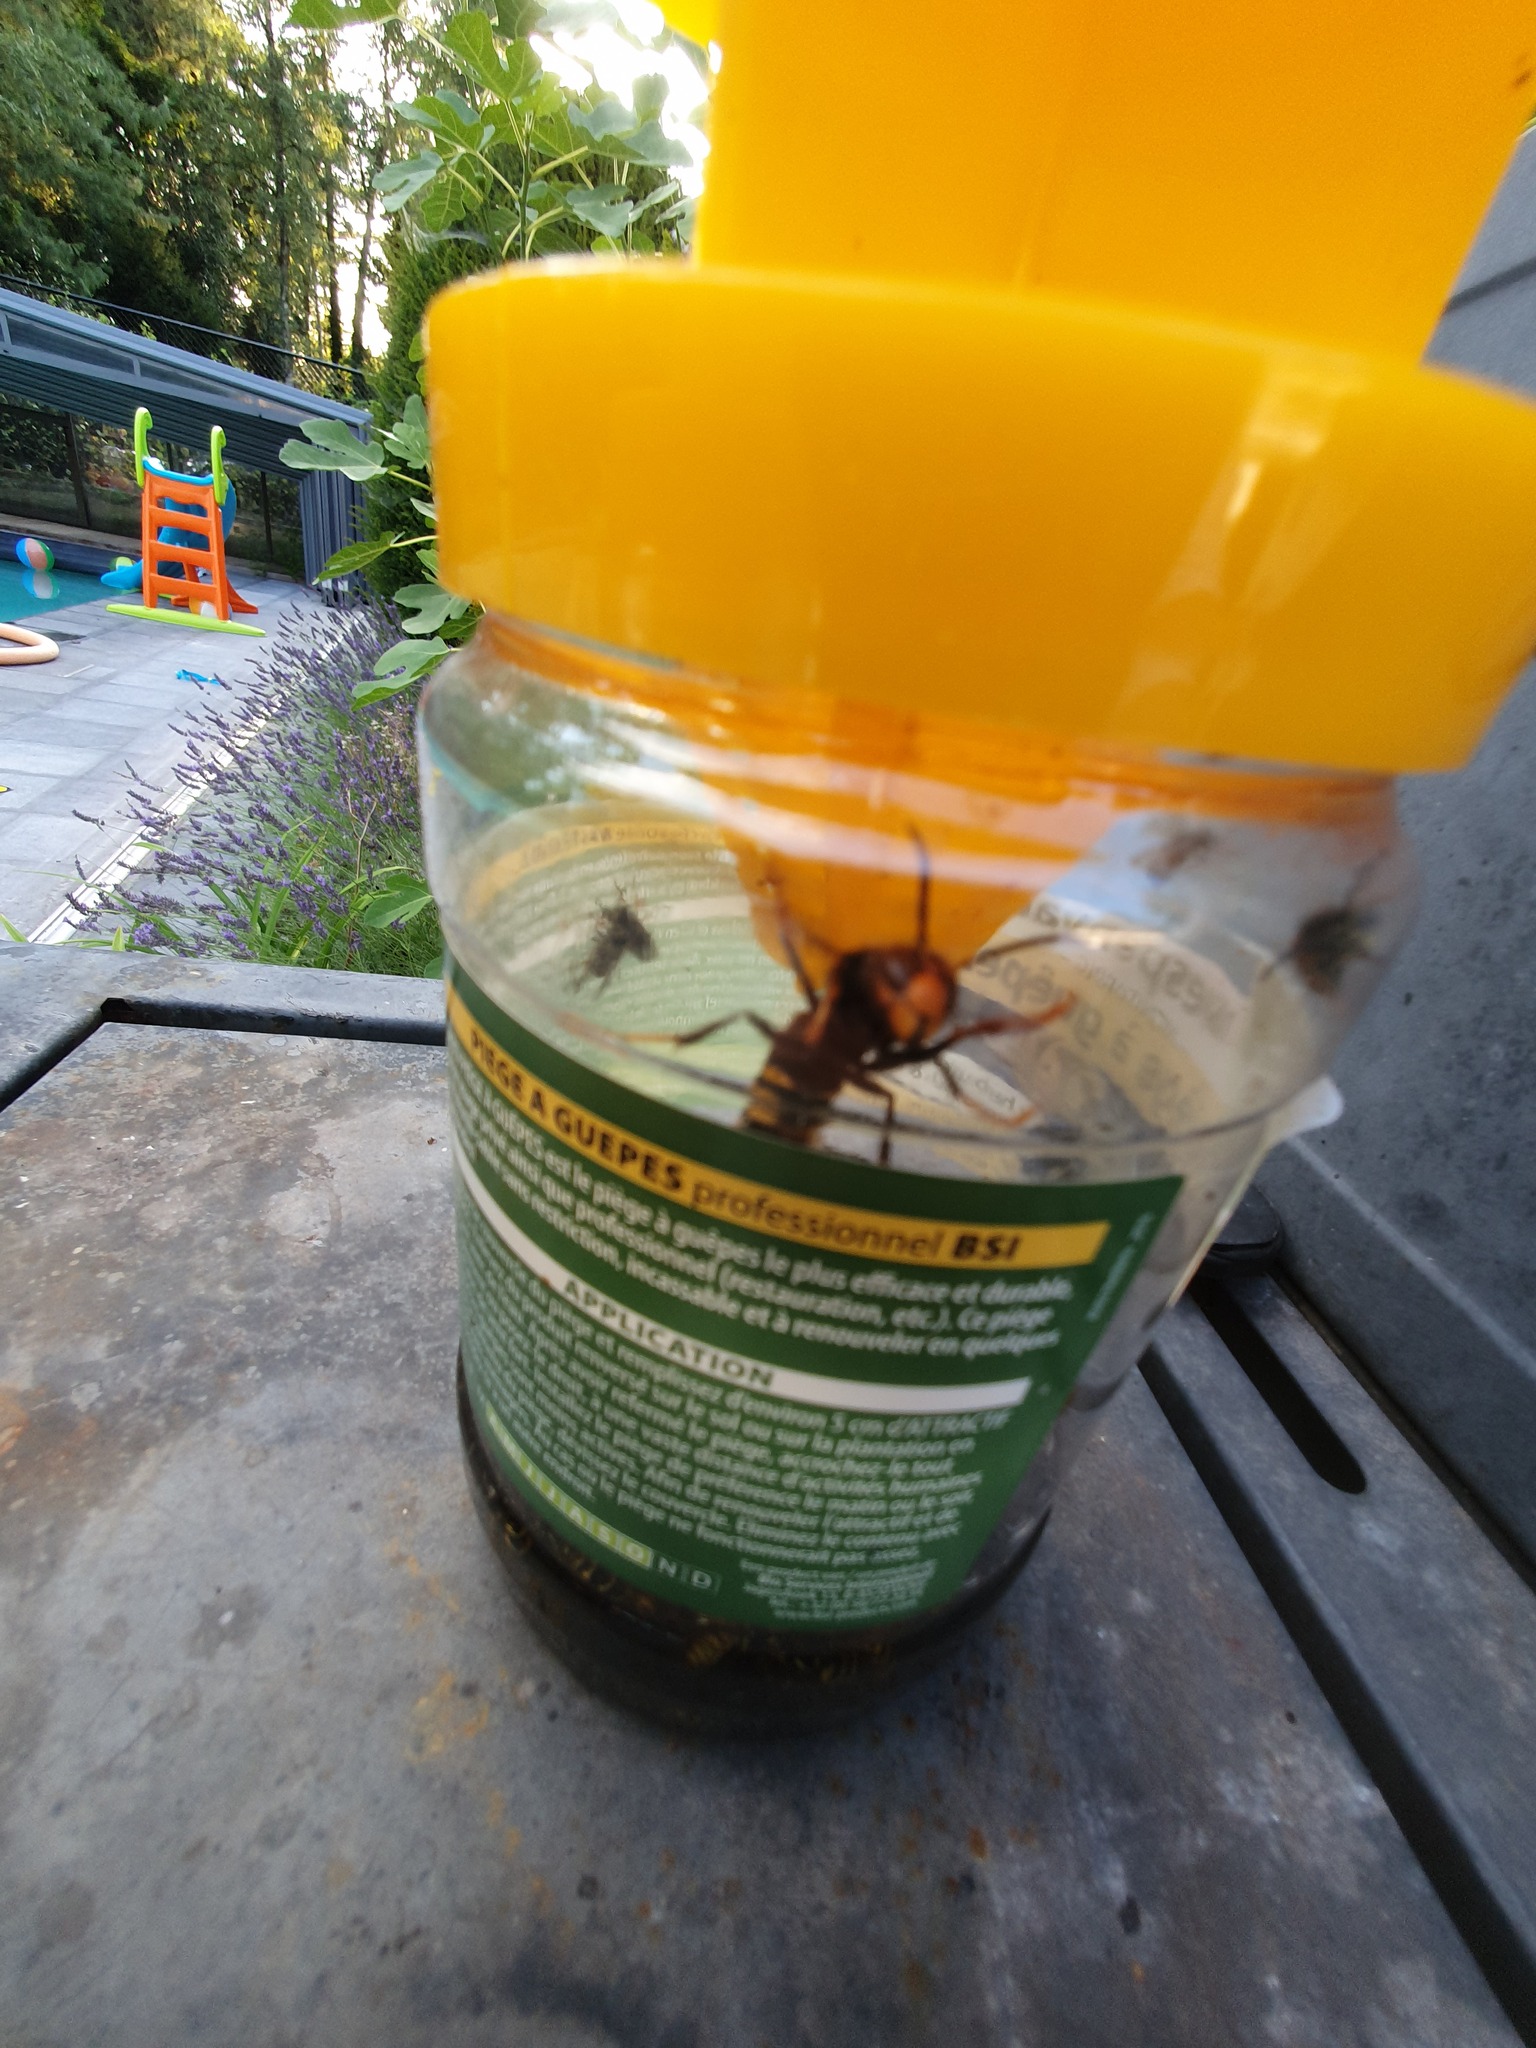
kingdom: Animalia
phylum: Arthropoda
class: Insecta
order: Hymenoptera
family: Vespidae
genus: Vespa
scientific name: Vespa velutina
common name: Asian hornet
